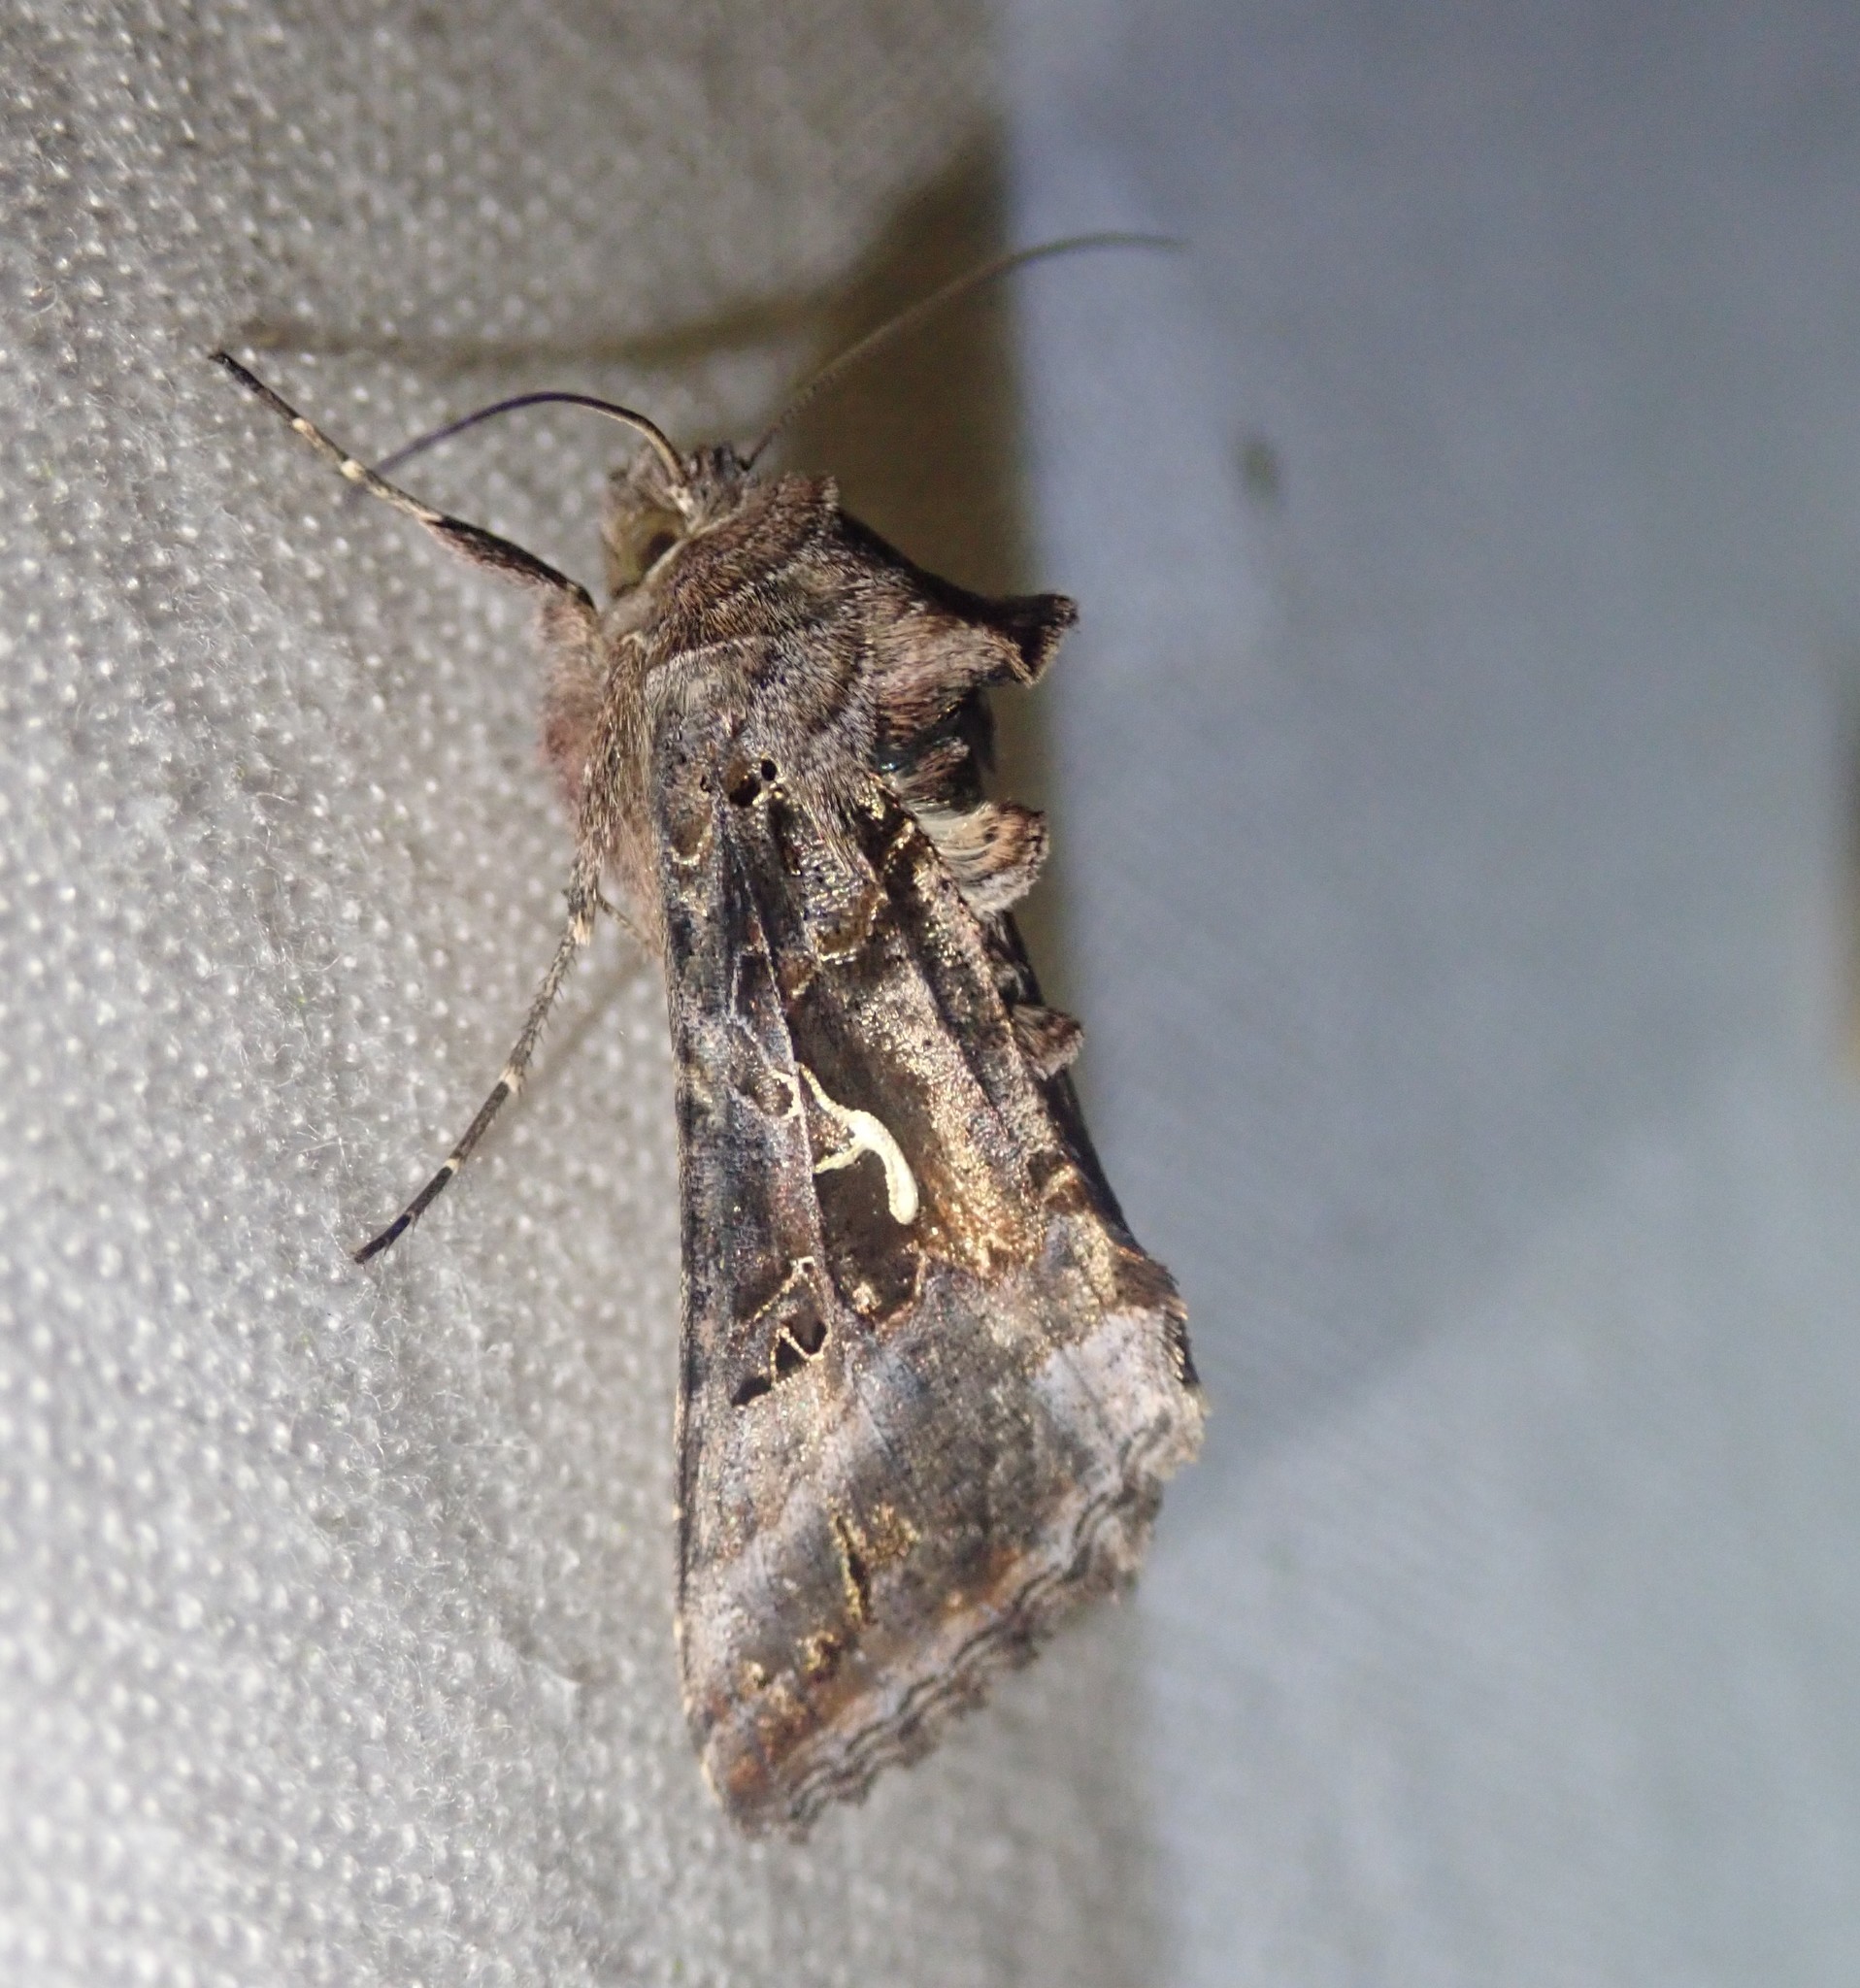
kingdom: Animalia
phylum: Arthropoda
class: Insecta
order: Lepidoptera
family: Noctuidae
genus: Autographa
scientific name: Autographa gamma
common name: Silver y
